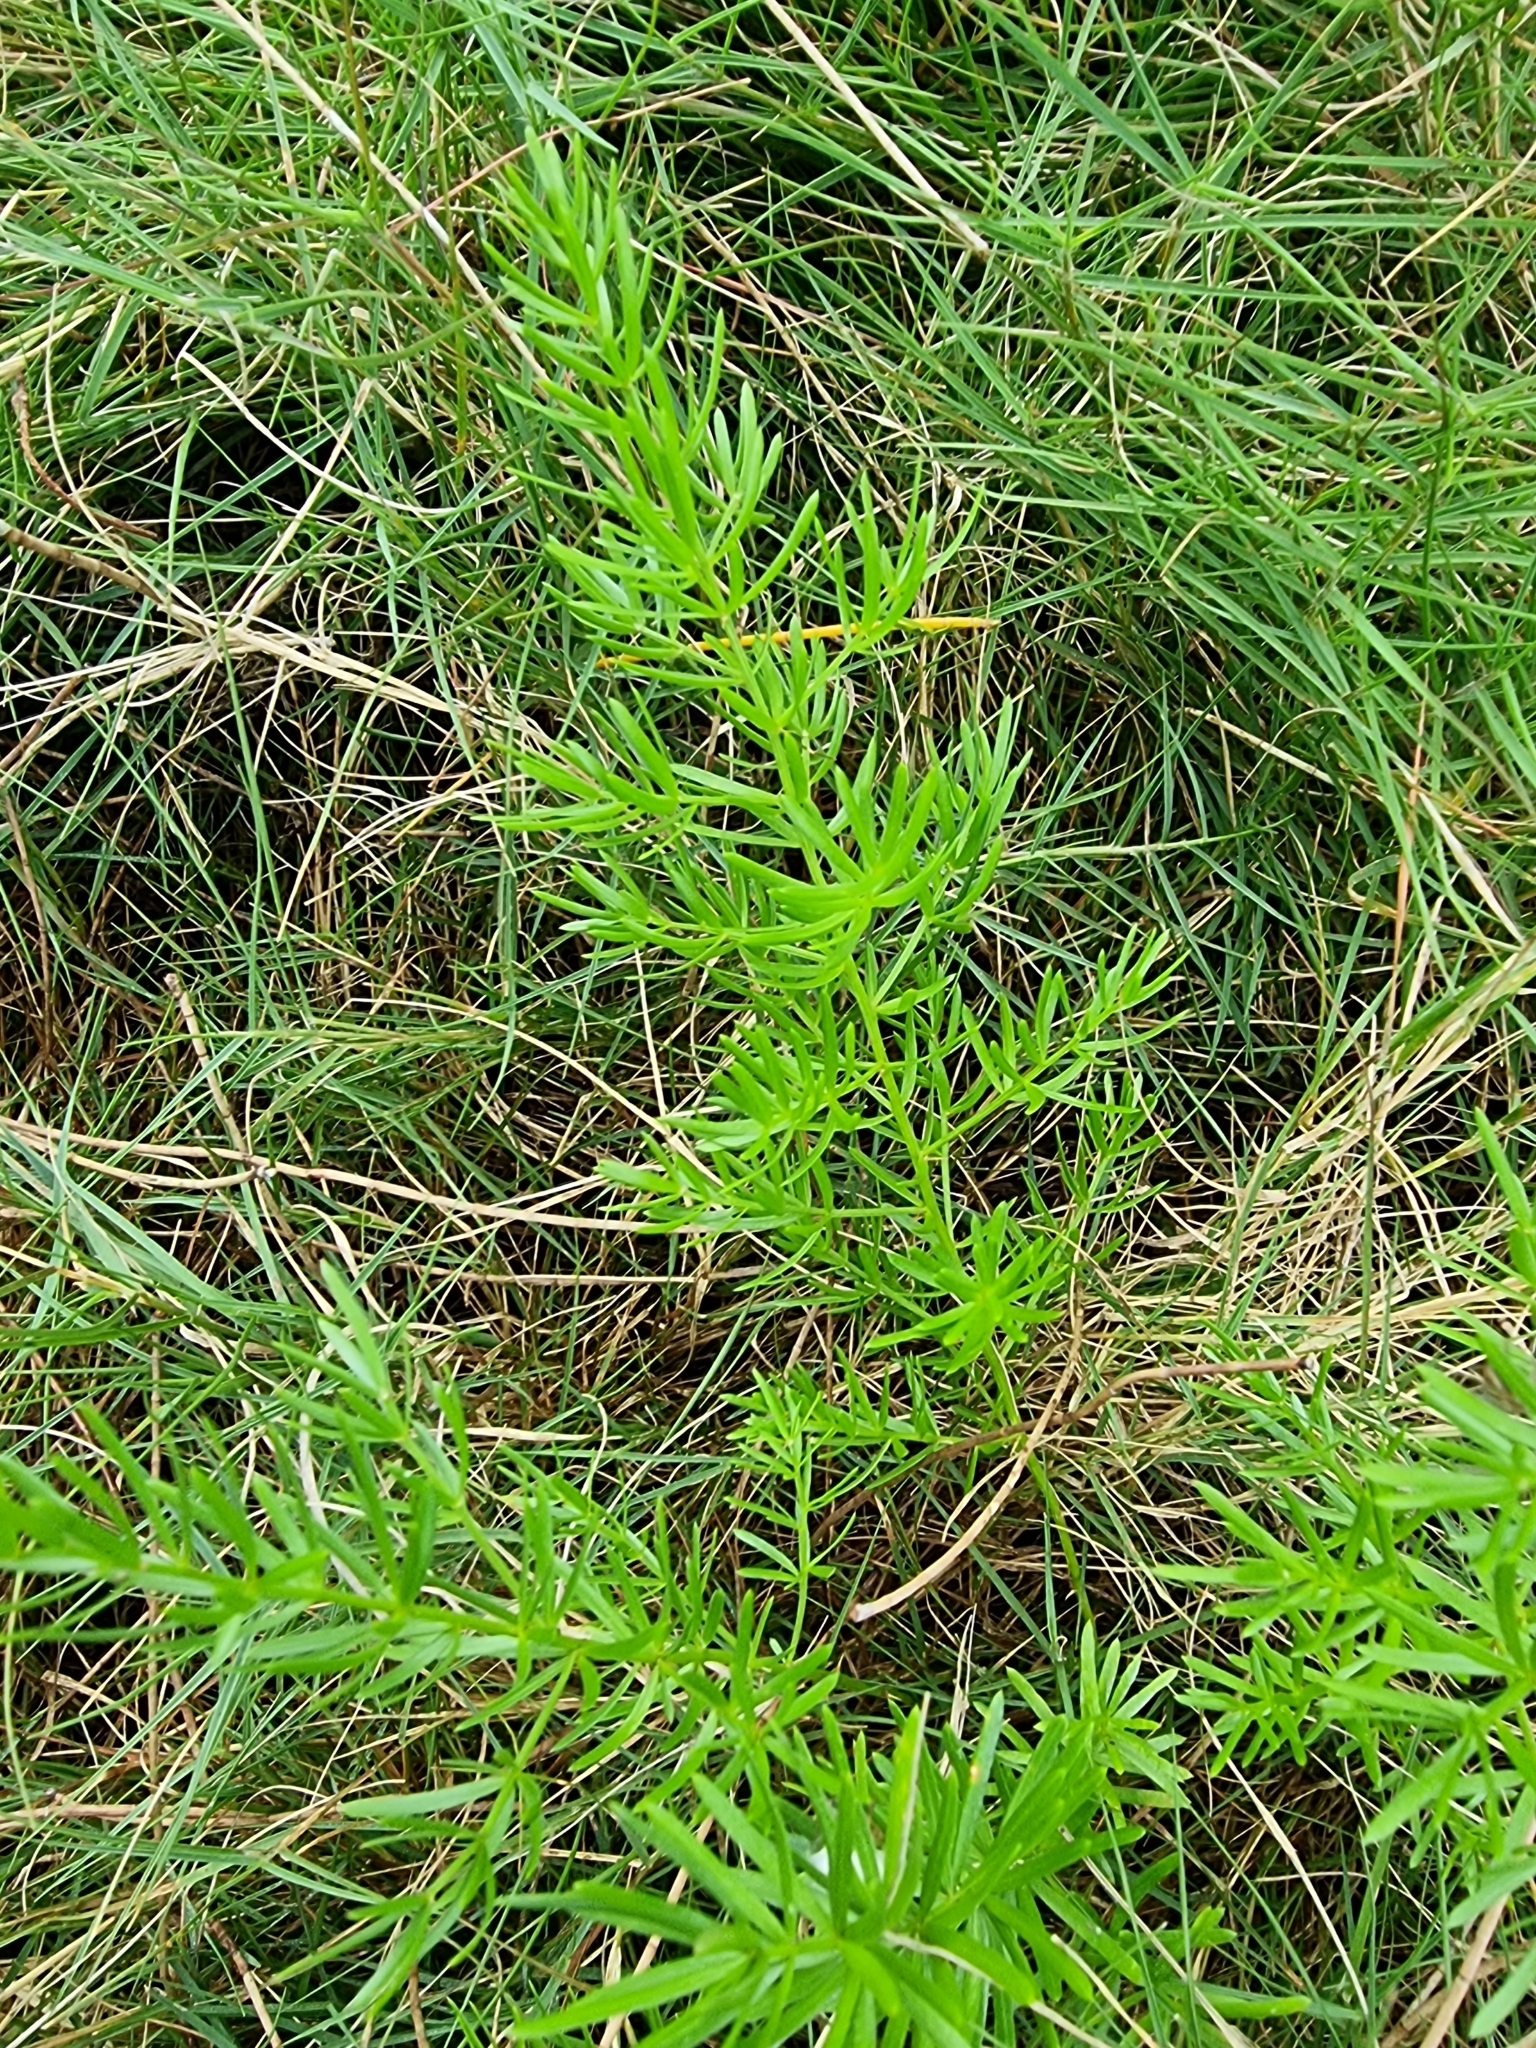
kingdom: Plantae
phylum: Tracheophyta
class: Liliopsida
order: Asparagales
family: Asparagaceae
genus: Asparagus
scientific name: Asparagus aethiopicus
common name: Sprenger's asparagus fern
